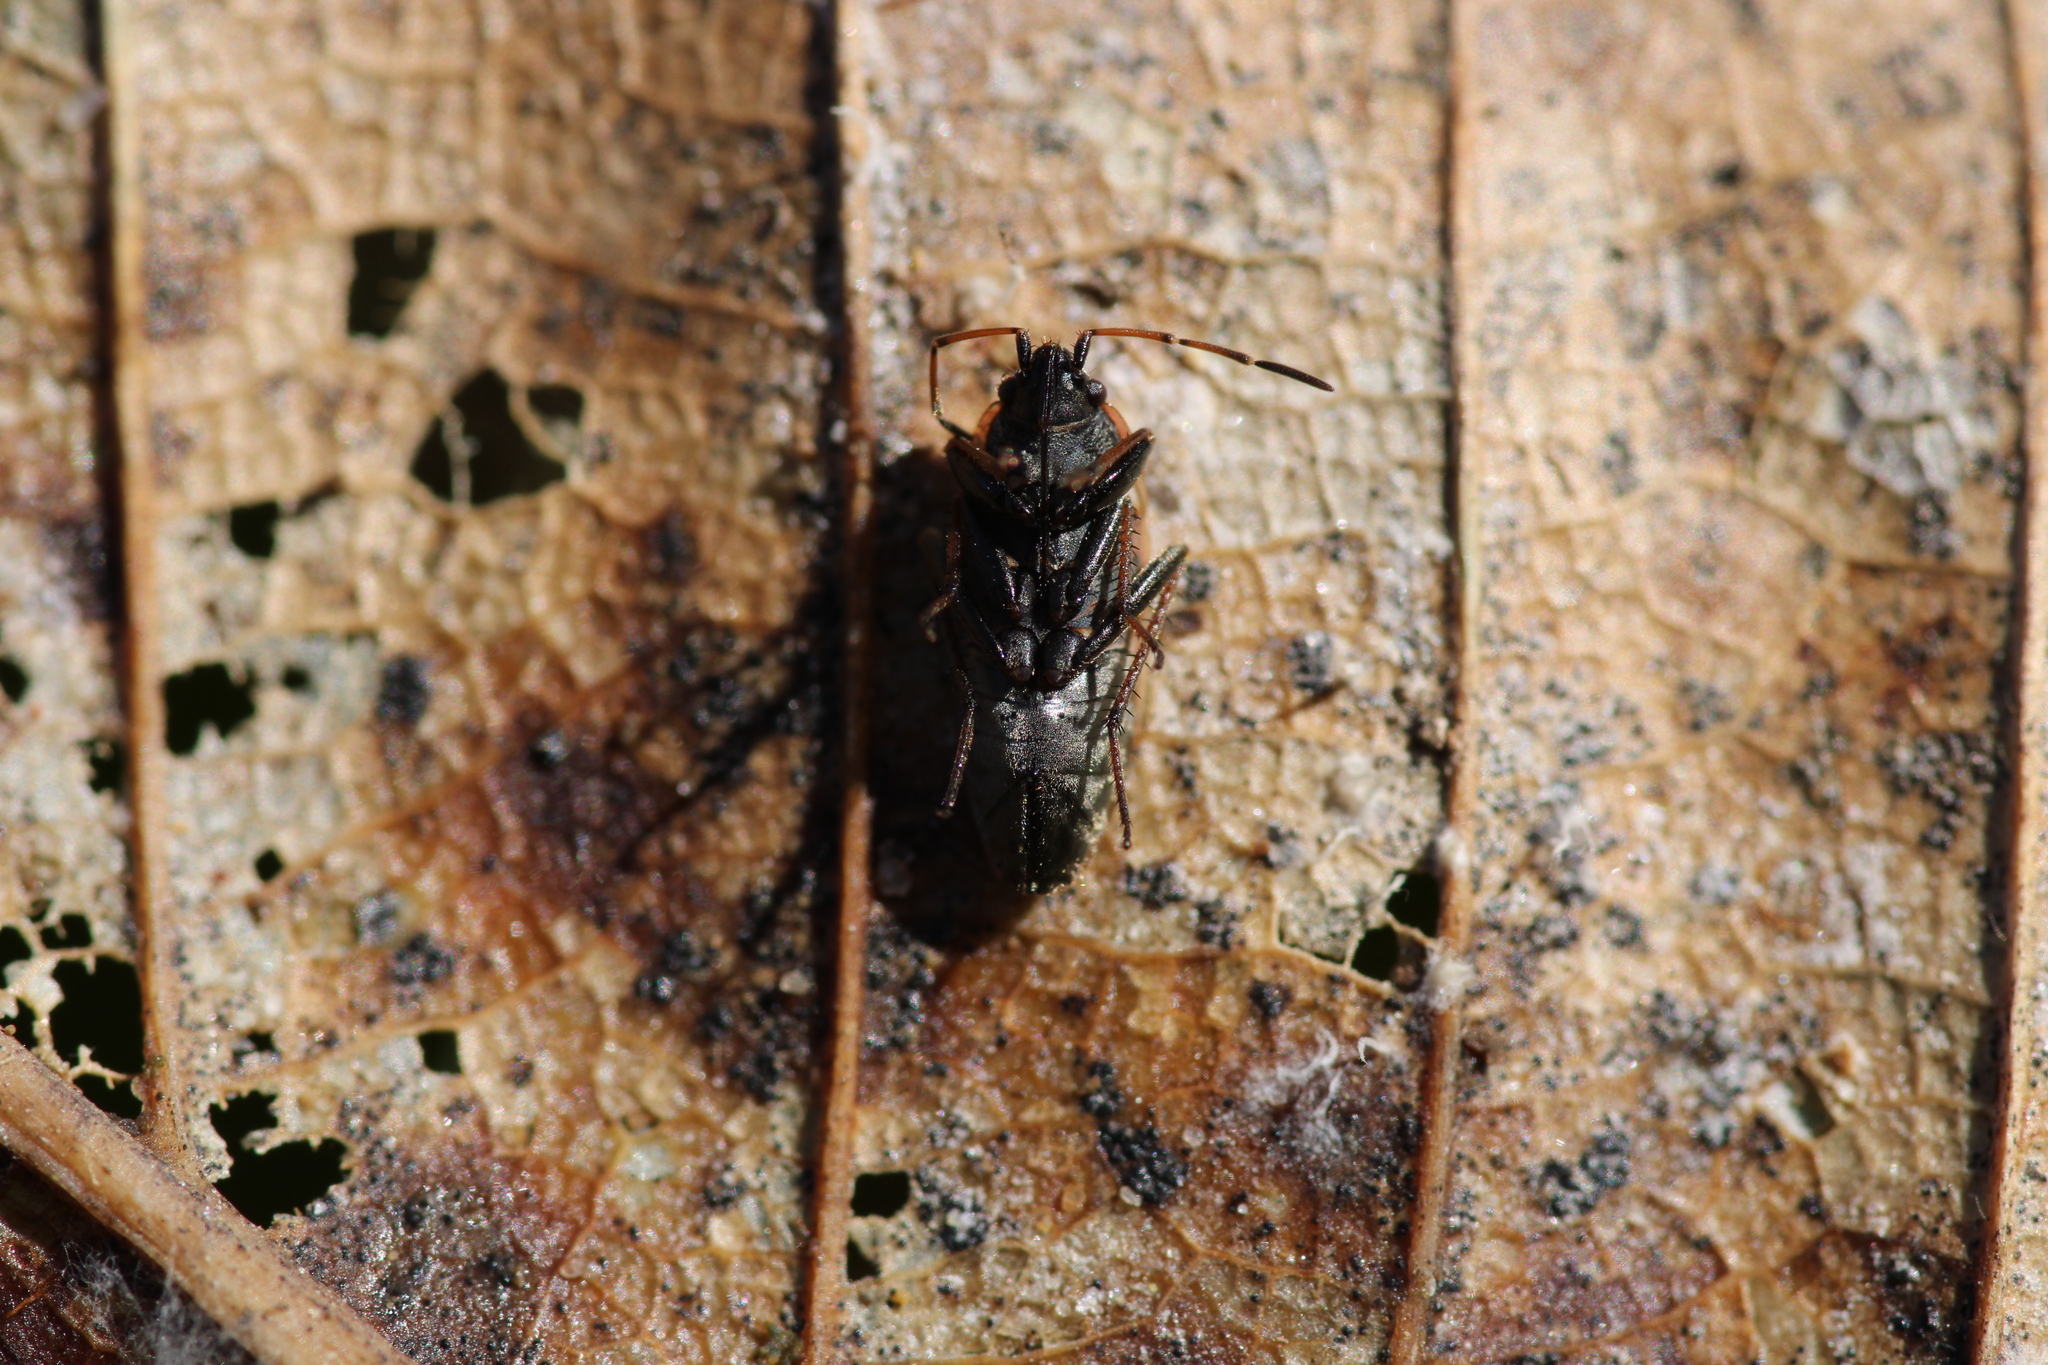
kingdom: Animalia
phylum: Arthropoda
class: Insecta
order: Hemiptera
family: Rhyparochromidae
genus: Xanthochilus
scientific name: Xanthochilus quadratus
